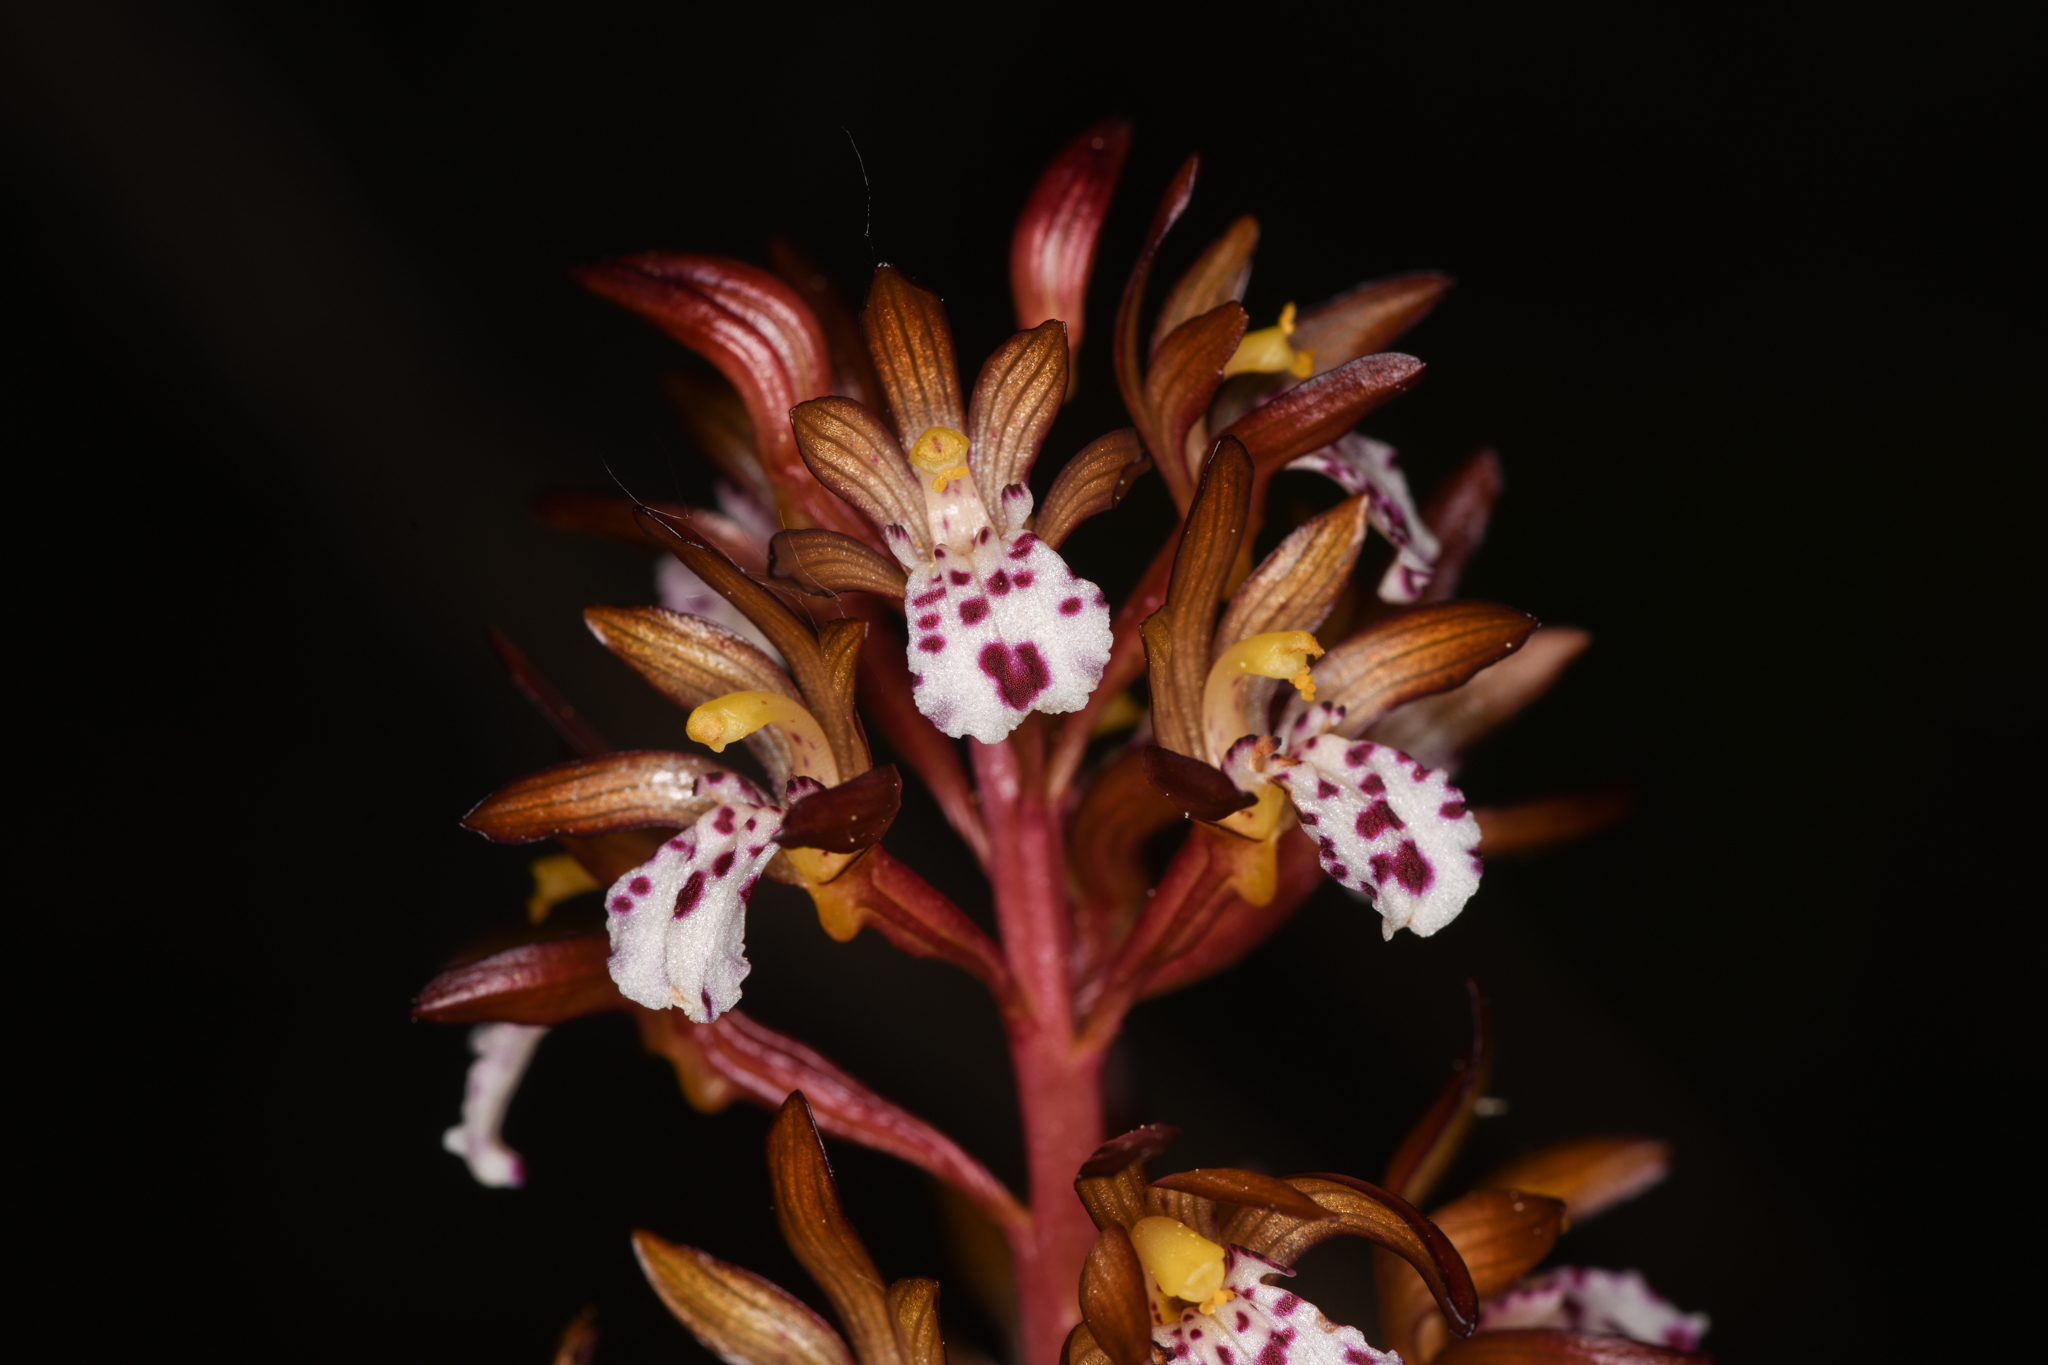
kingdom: Plantae
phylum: Tracheophyta
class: Liliopsida
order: Asparagales
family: Orchidaceae
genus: Corallorhiza
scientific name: Corallorhiza maculata
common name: Spotted coralroot
